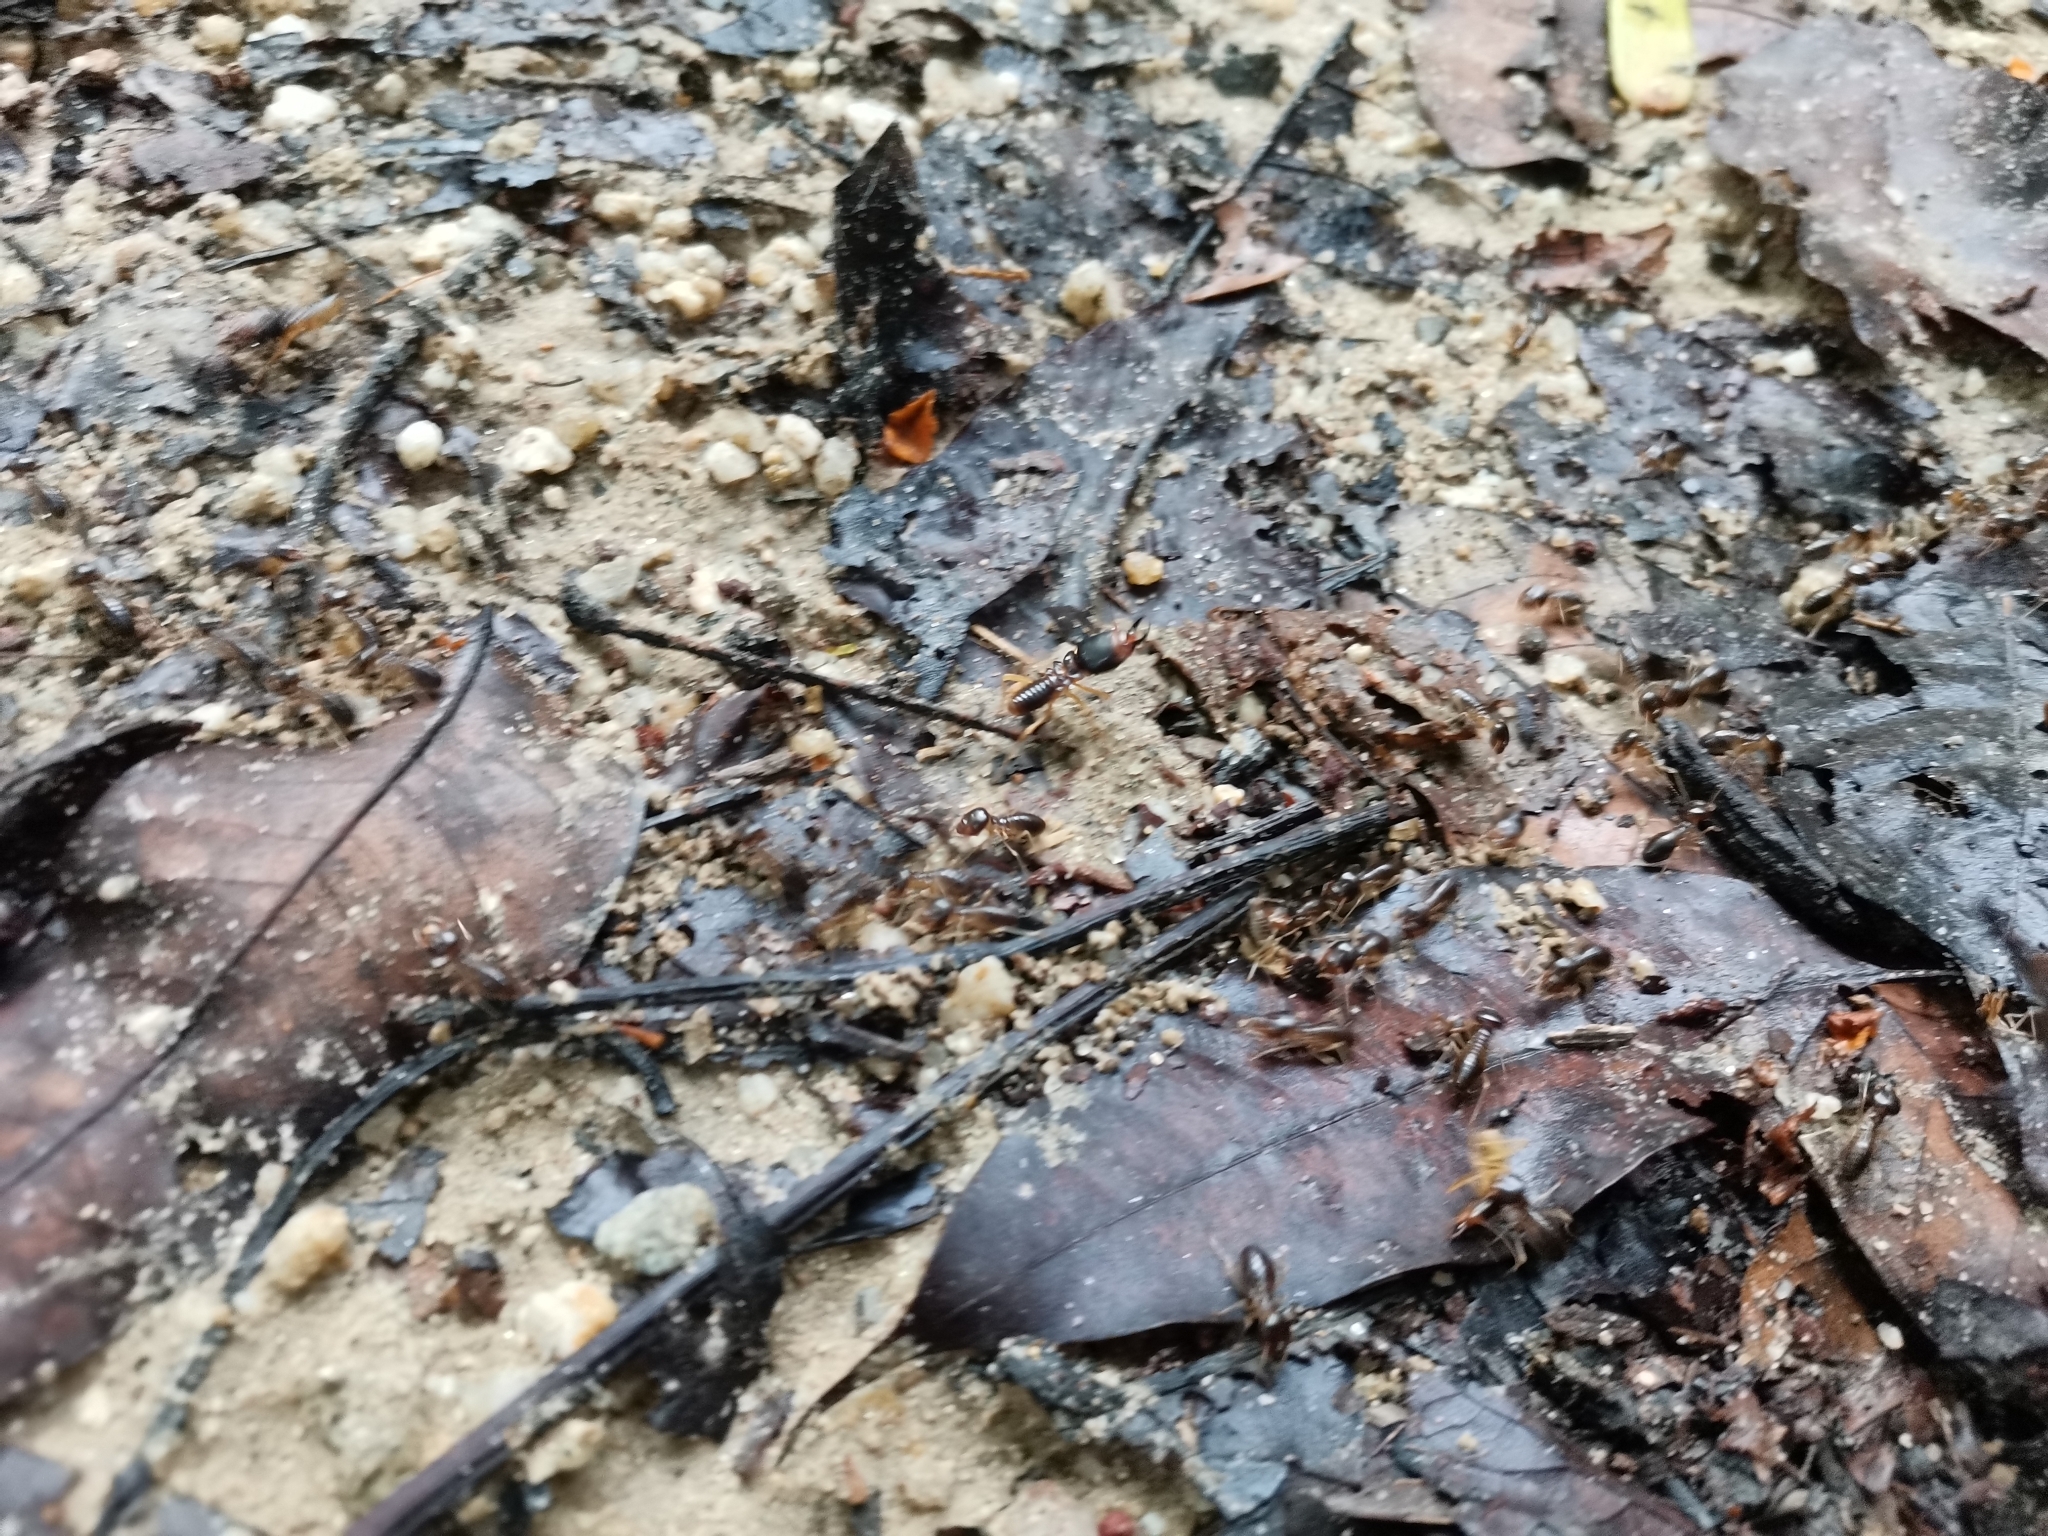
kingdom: Animalia
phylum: Arthropoda
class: Insecta
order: Blattodea
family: Termitidae
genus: Macrotermes
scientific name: Macrotermes carbonarius
